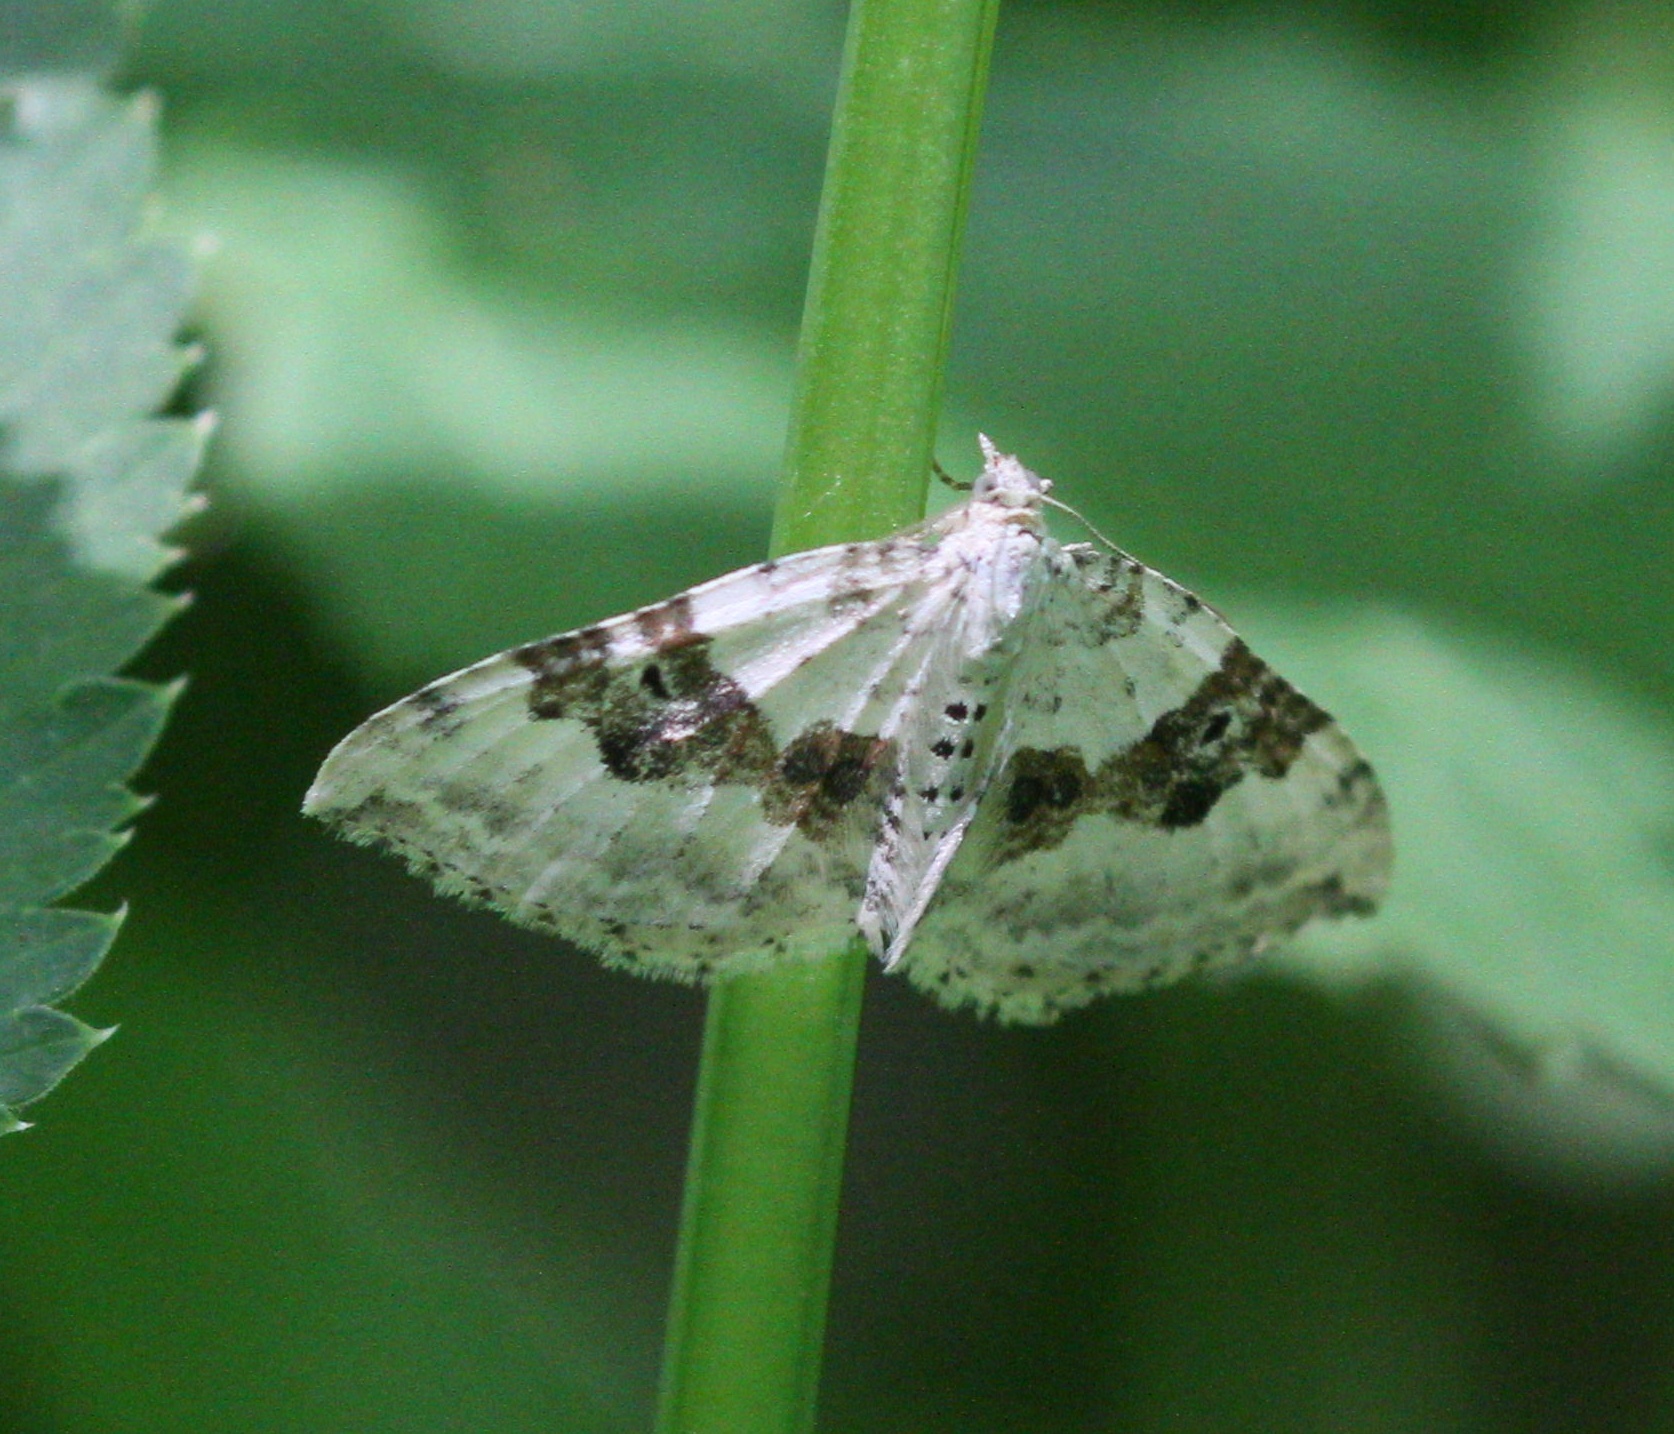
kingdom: Animalia
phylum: Arthropoda
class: Insecta
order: Lepidoptera
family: Geometridae
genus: Xanthorhoe
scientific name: Xanthorhoe montanata
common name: Silver-ground carpet
